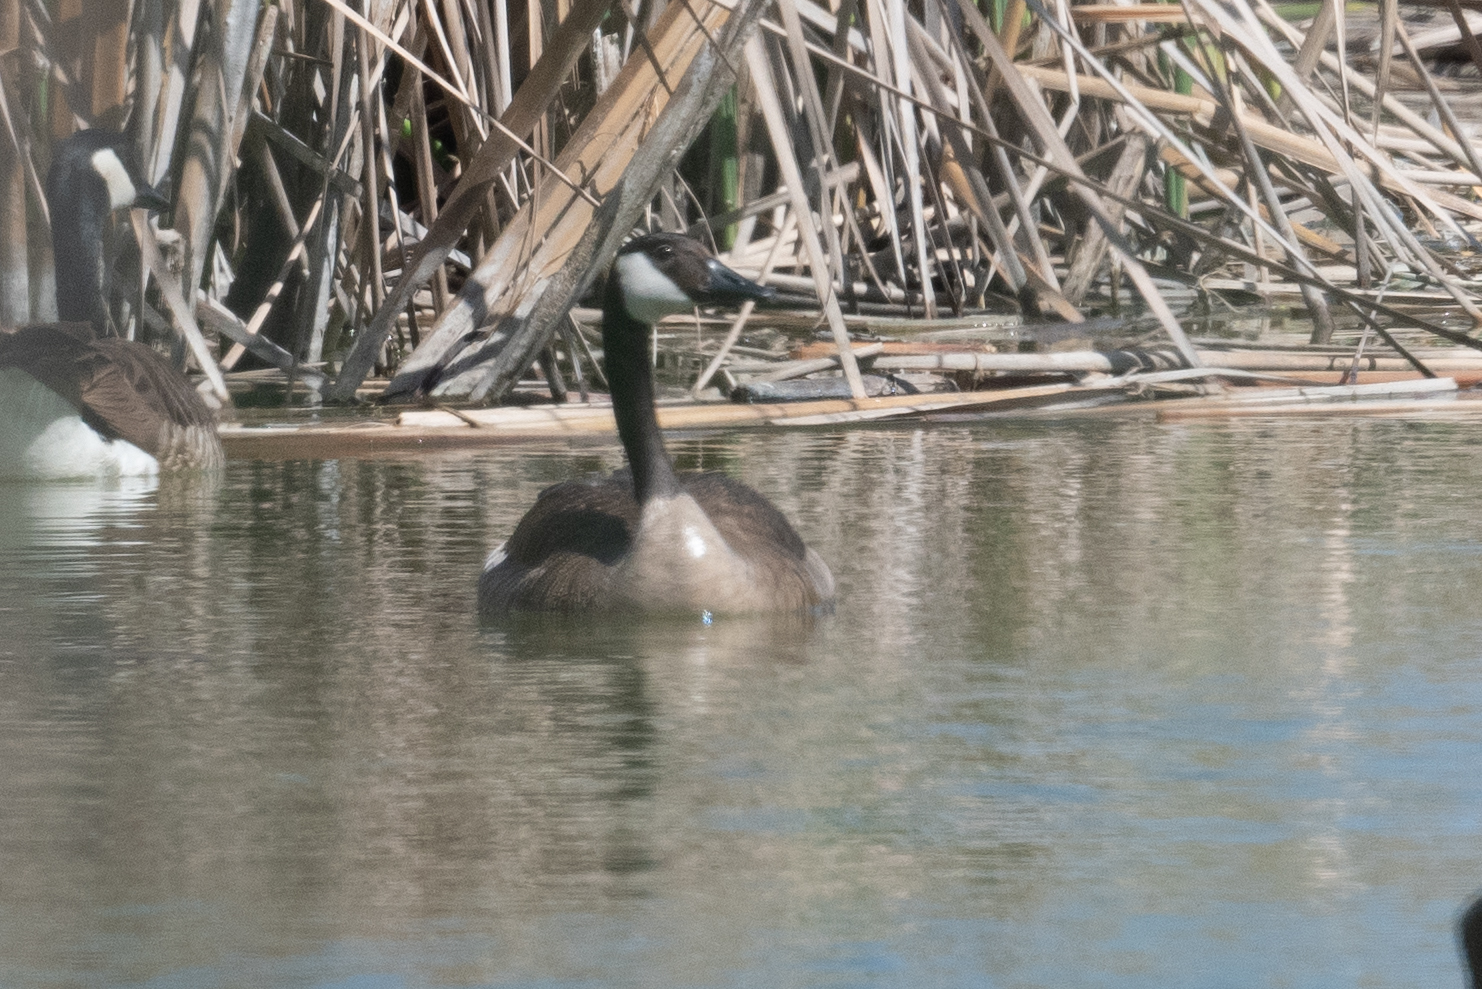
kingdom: Animalia
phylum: Chordata
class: Aves
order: Anseriformes
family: Anatidae
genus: Branta
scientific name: Branta canadensis
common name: Canada goose
